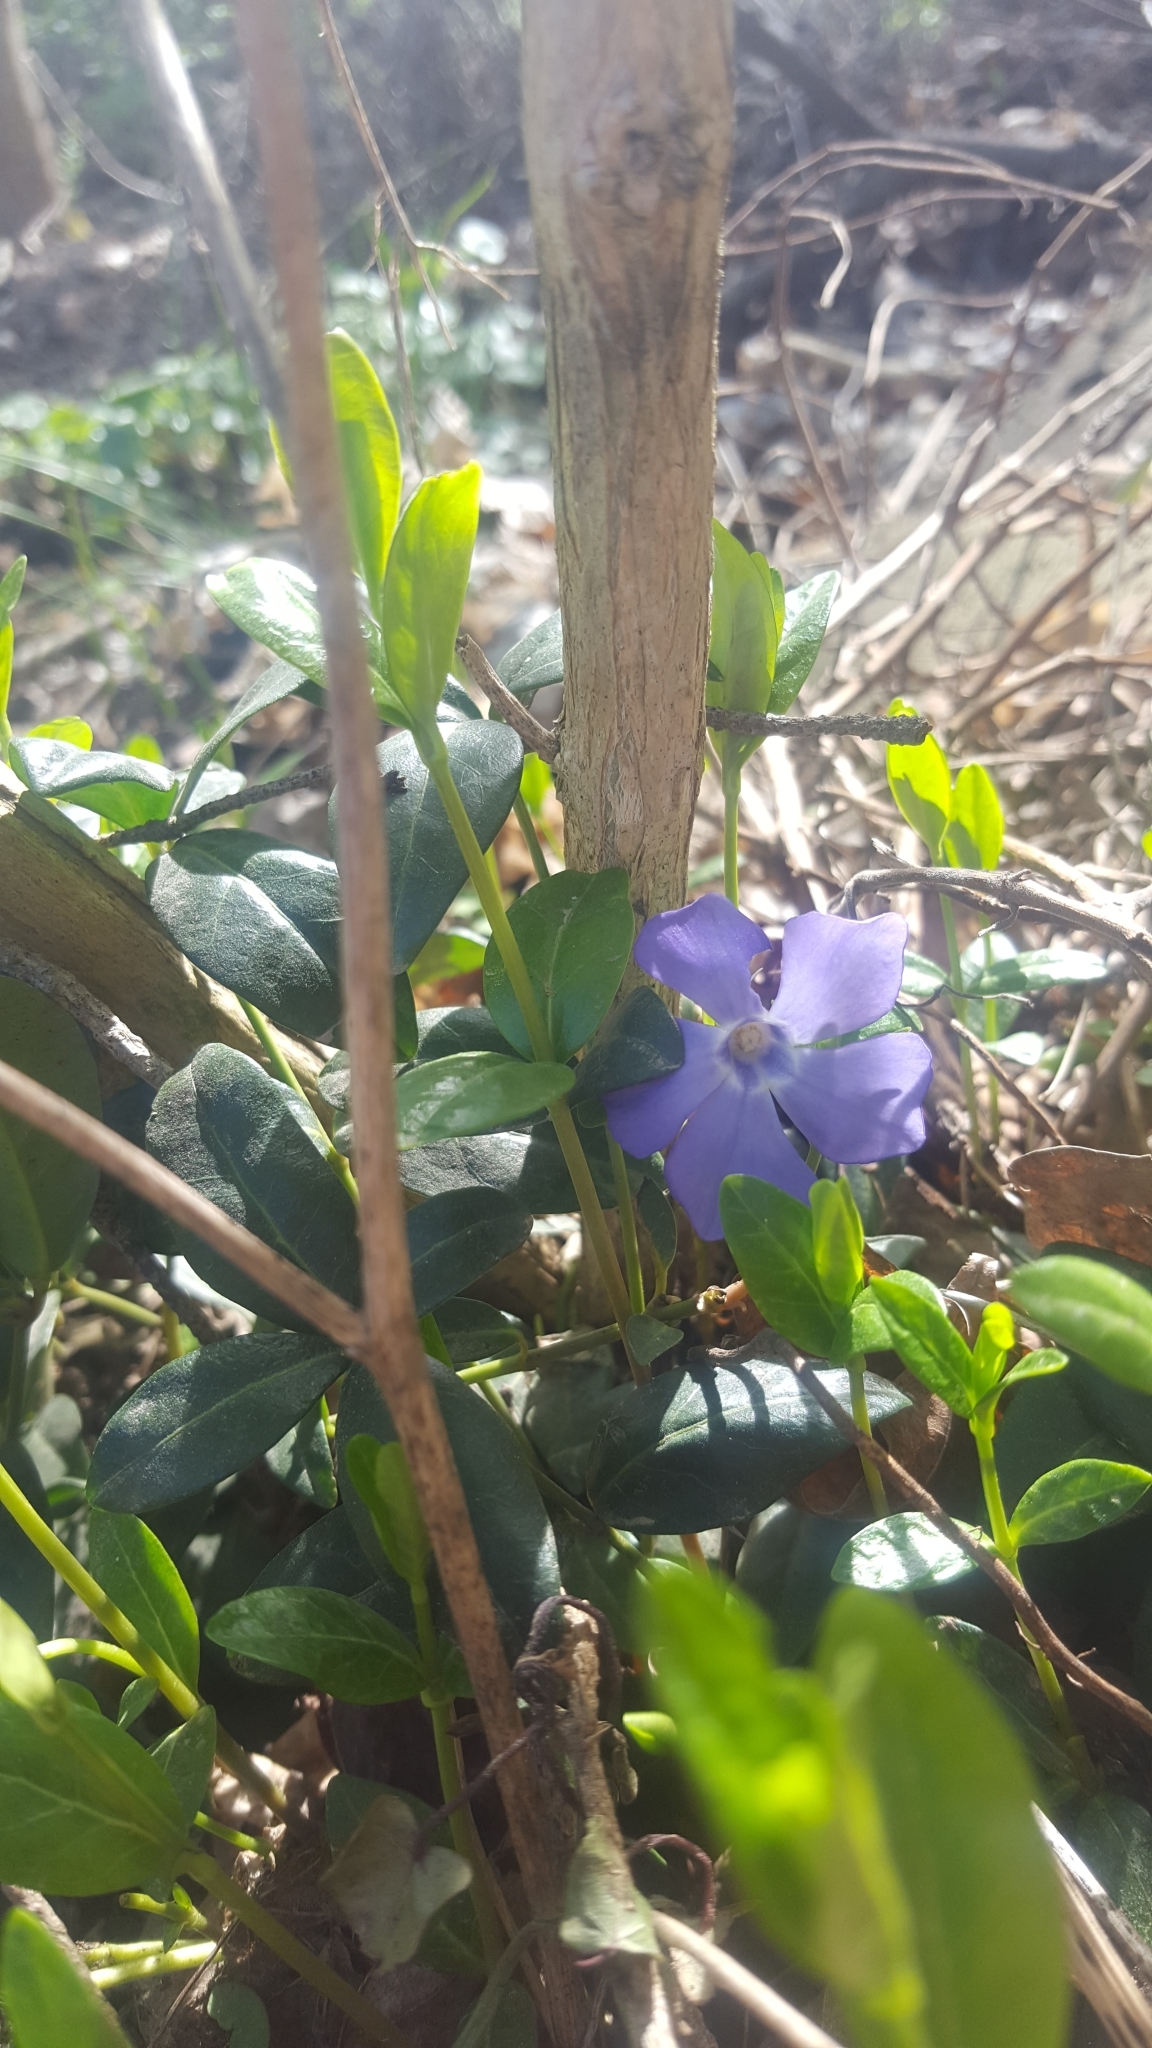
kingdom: Plantae
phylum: Tracheophyta
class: Magnoliopsida
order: Gentianales
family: Apocynaceae
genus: Vinca
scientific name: Vinca minor
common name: Lesser periwinkle
